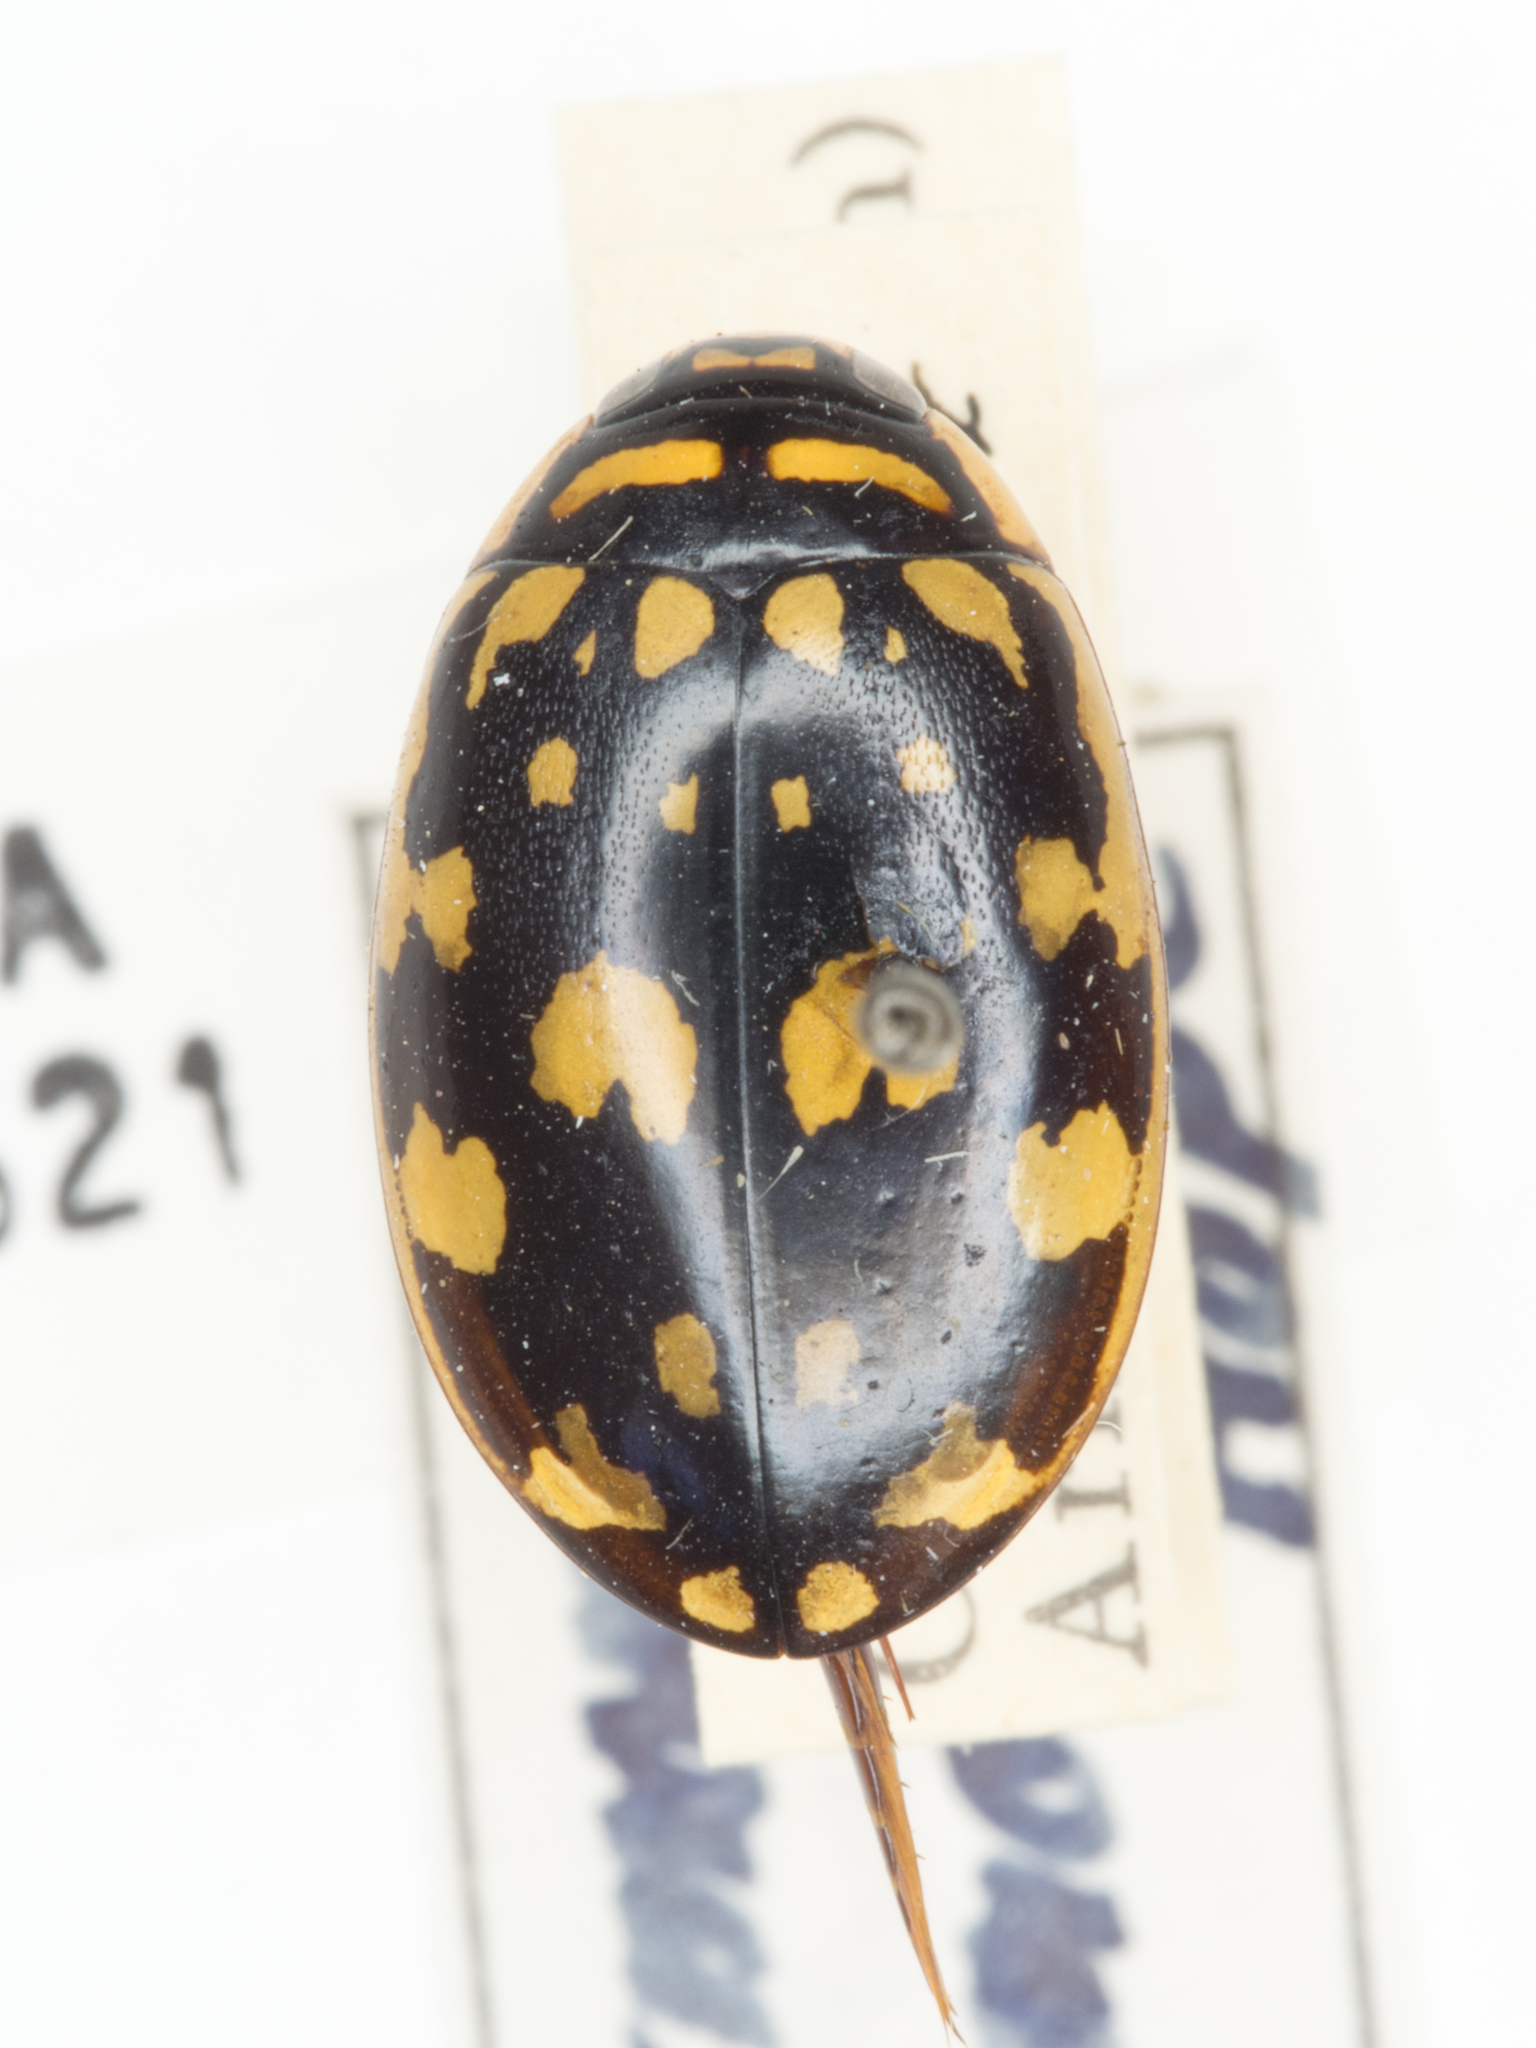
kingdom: Animalia
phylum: Arthropoda
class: Insecta
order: Coleoptera
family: Dytiscidae
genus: Thermonectus
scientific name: Thermonectus marmoratus
